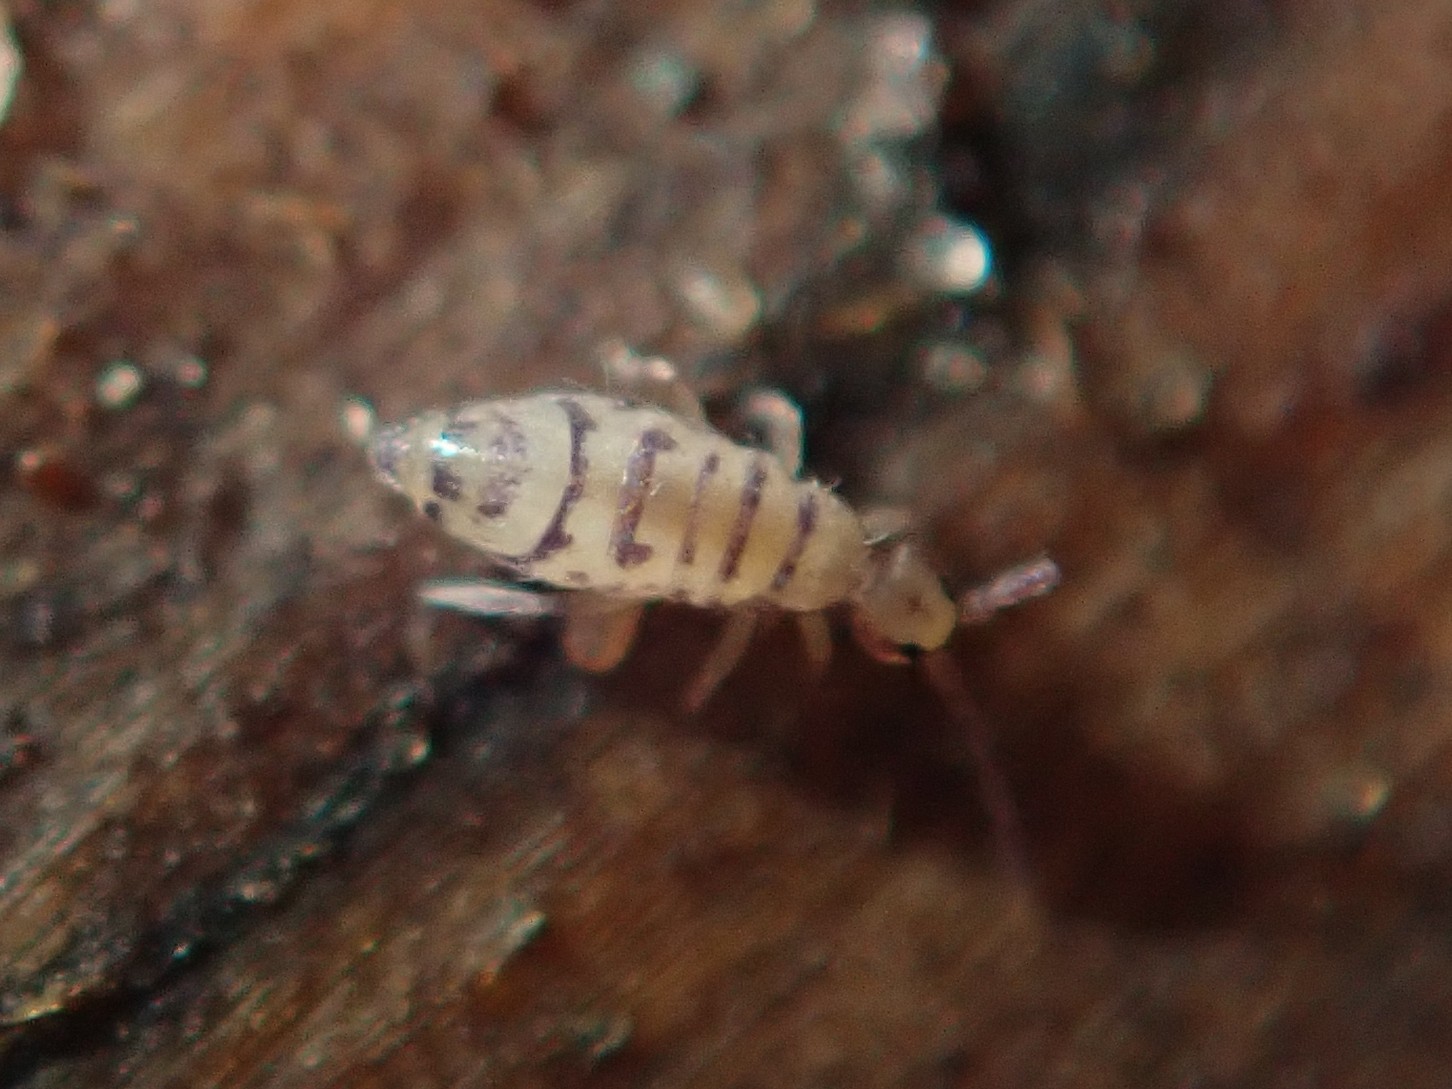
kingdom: Animalia
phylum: Arthropoda
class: Collembola
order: Entomobryomorpha
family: Entomobryidae
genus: Entomobrya
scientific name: Entomobrya multifasciata
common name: Springtail
